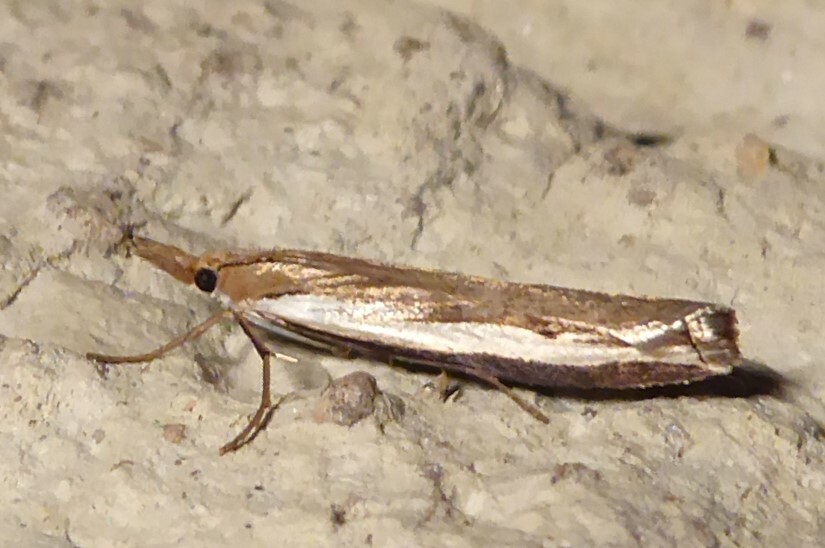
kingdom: Animalia
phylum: Arthropoda
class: Insecta
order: Lepidoptera
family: Crambidae
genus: Orocrambus
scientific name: Orocrambus flexuosellus
